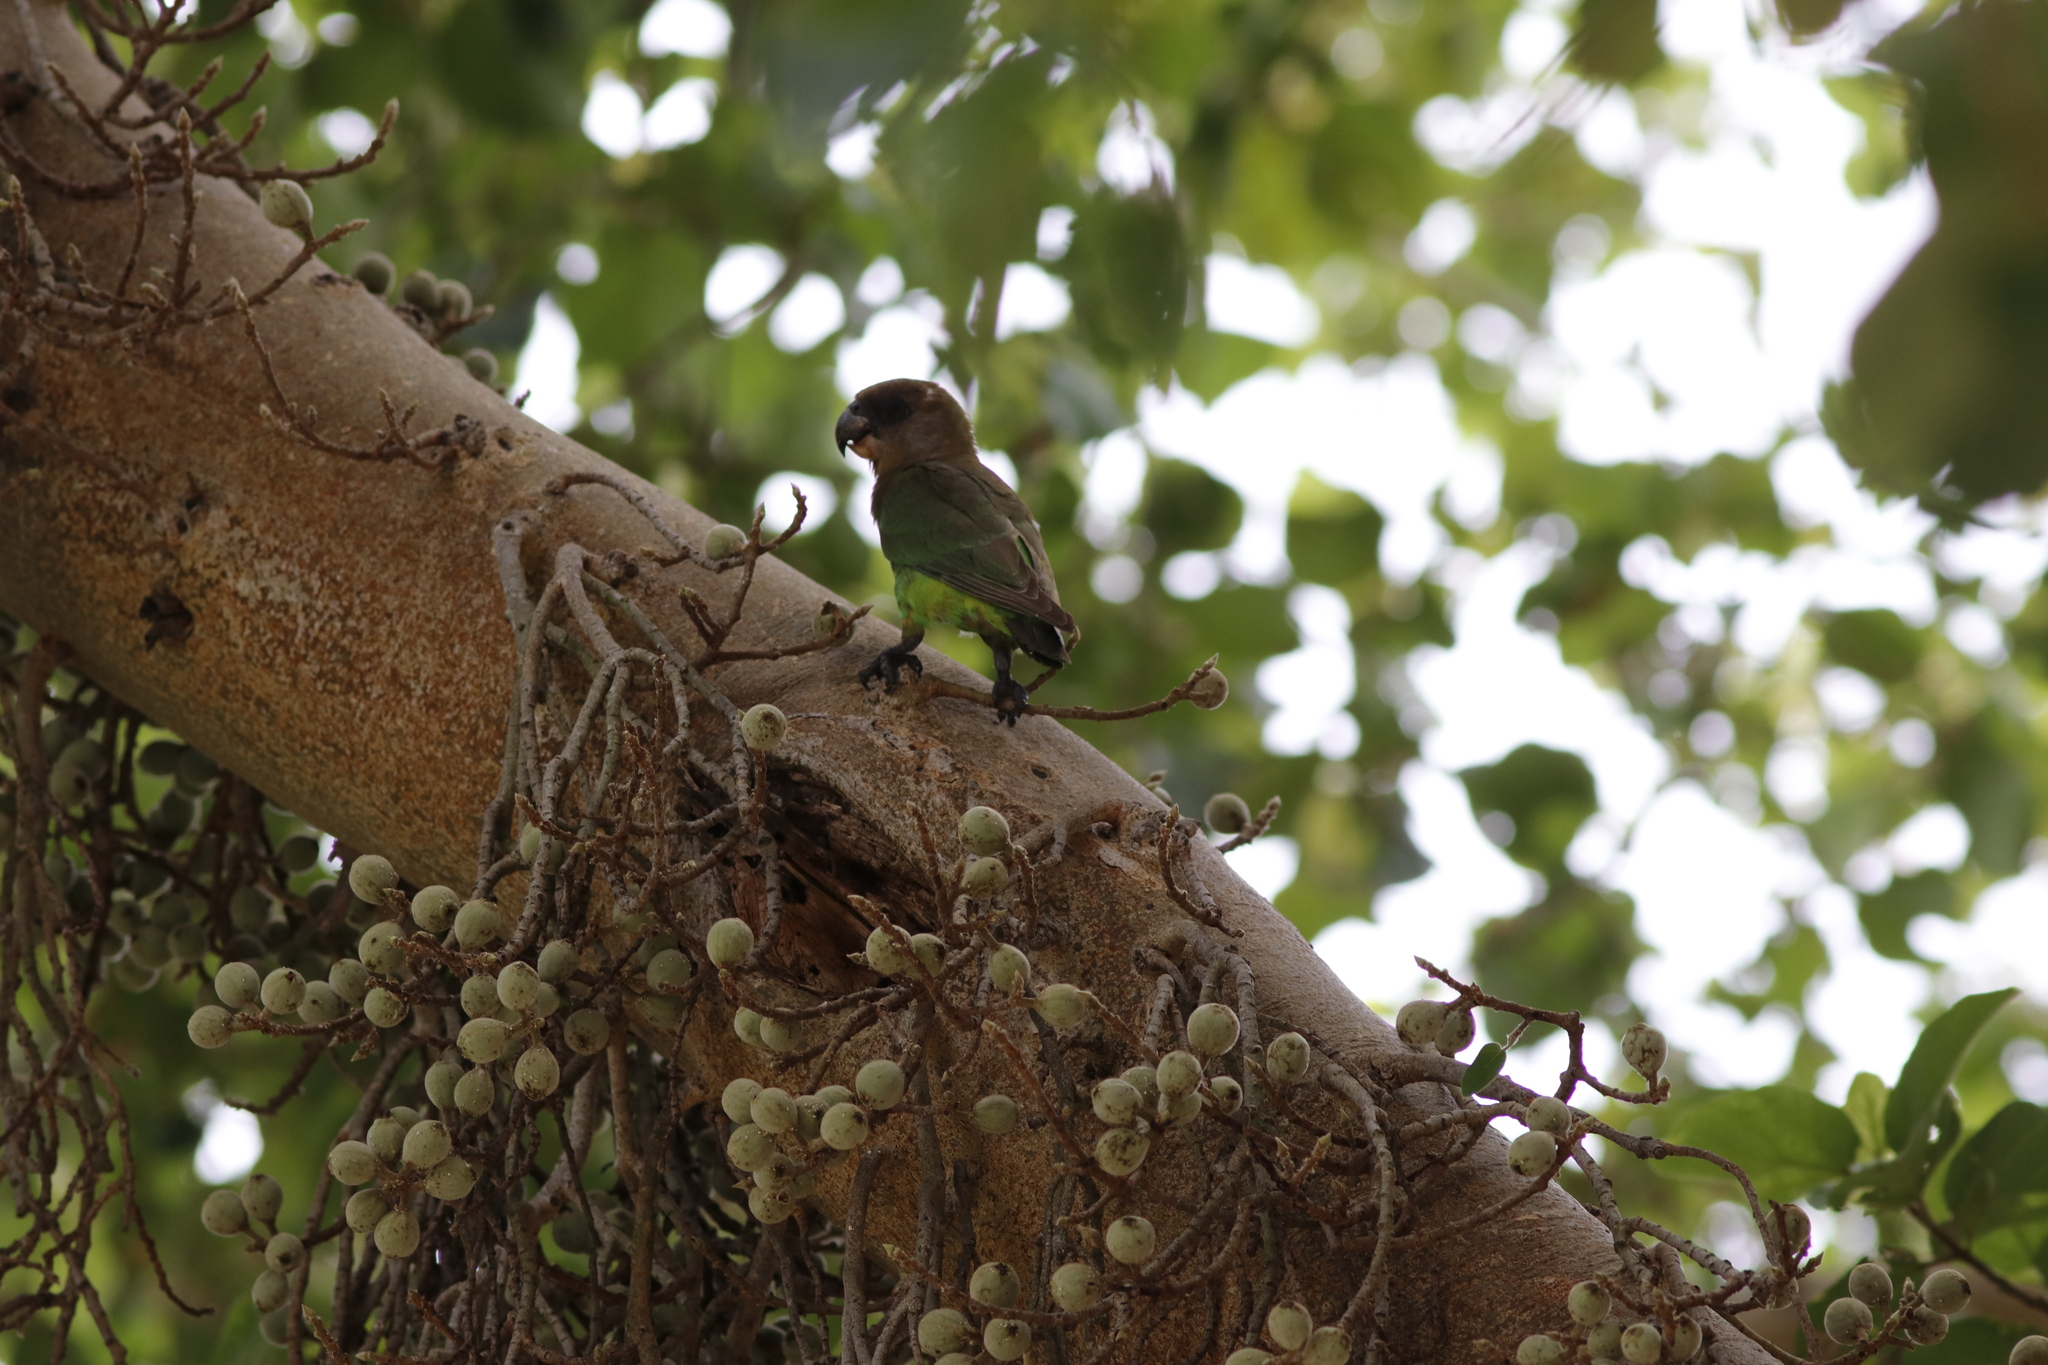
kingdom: Plantae
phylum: Tracheophyta
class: Magnoliopsida
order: Rosales
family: Moraceae
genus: Ficus
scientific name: Ficus sycomorus
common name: Sycomore
